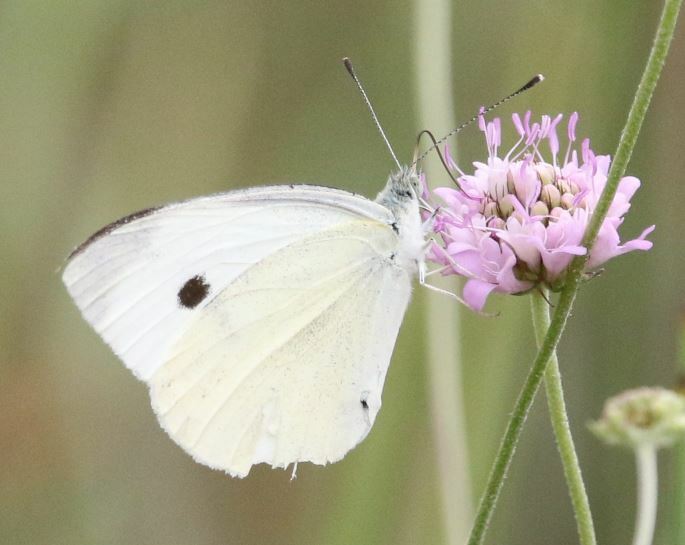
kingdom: Animalia
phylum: Arthropoda
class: Insecta
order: Lepidoptera
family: Pieridae
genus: Pieris
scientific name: Pieris rapae
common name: Small white
